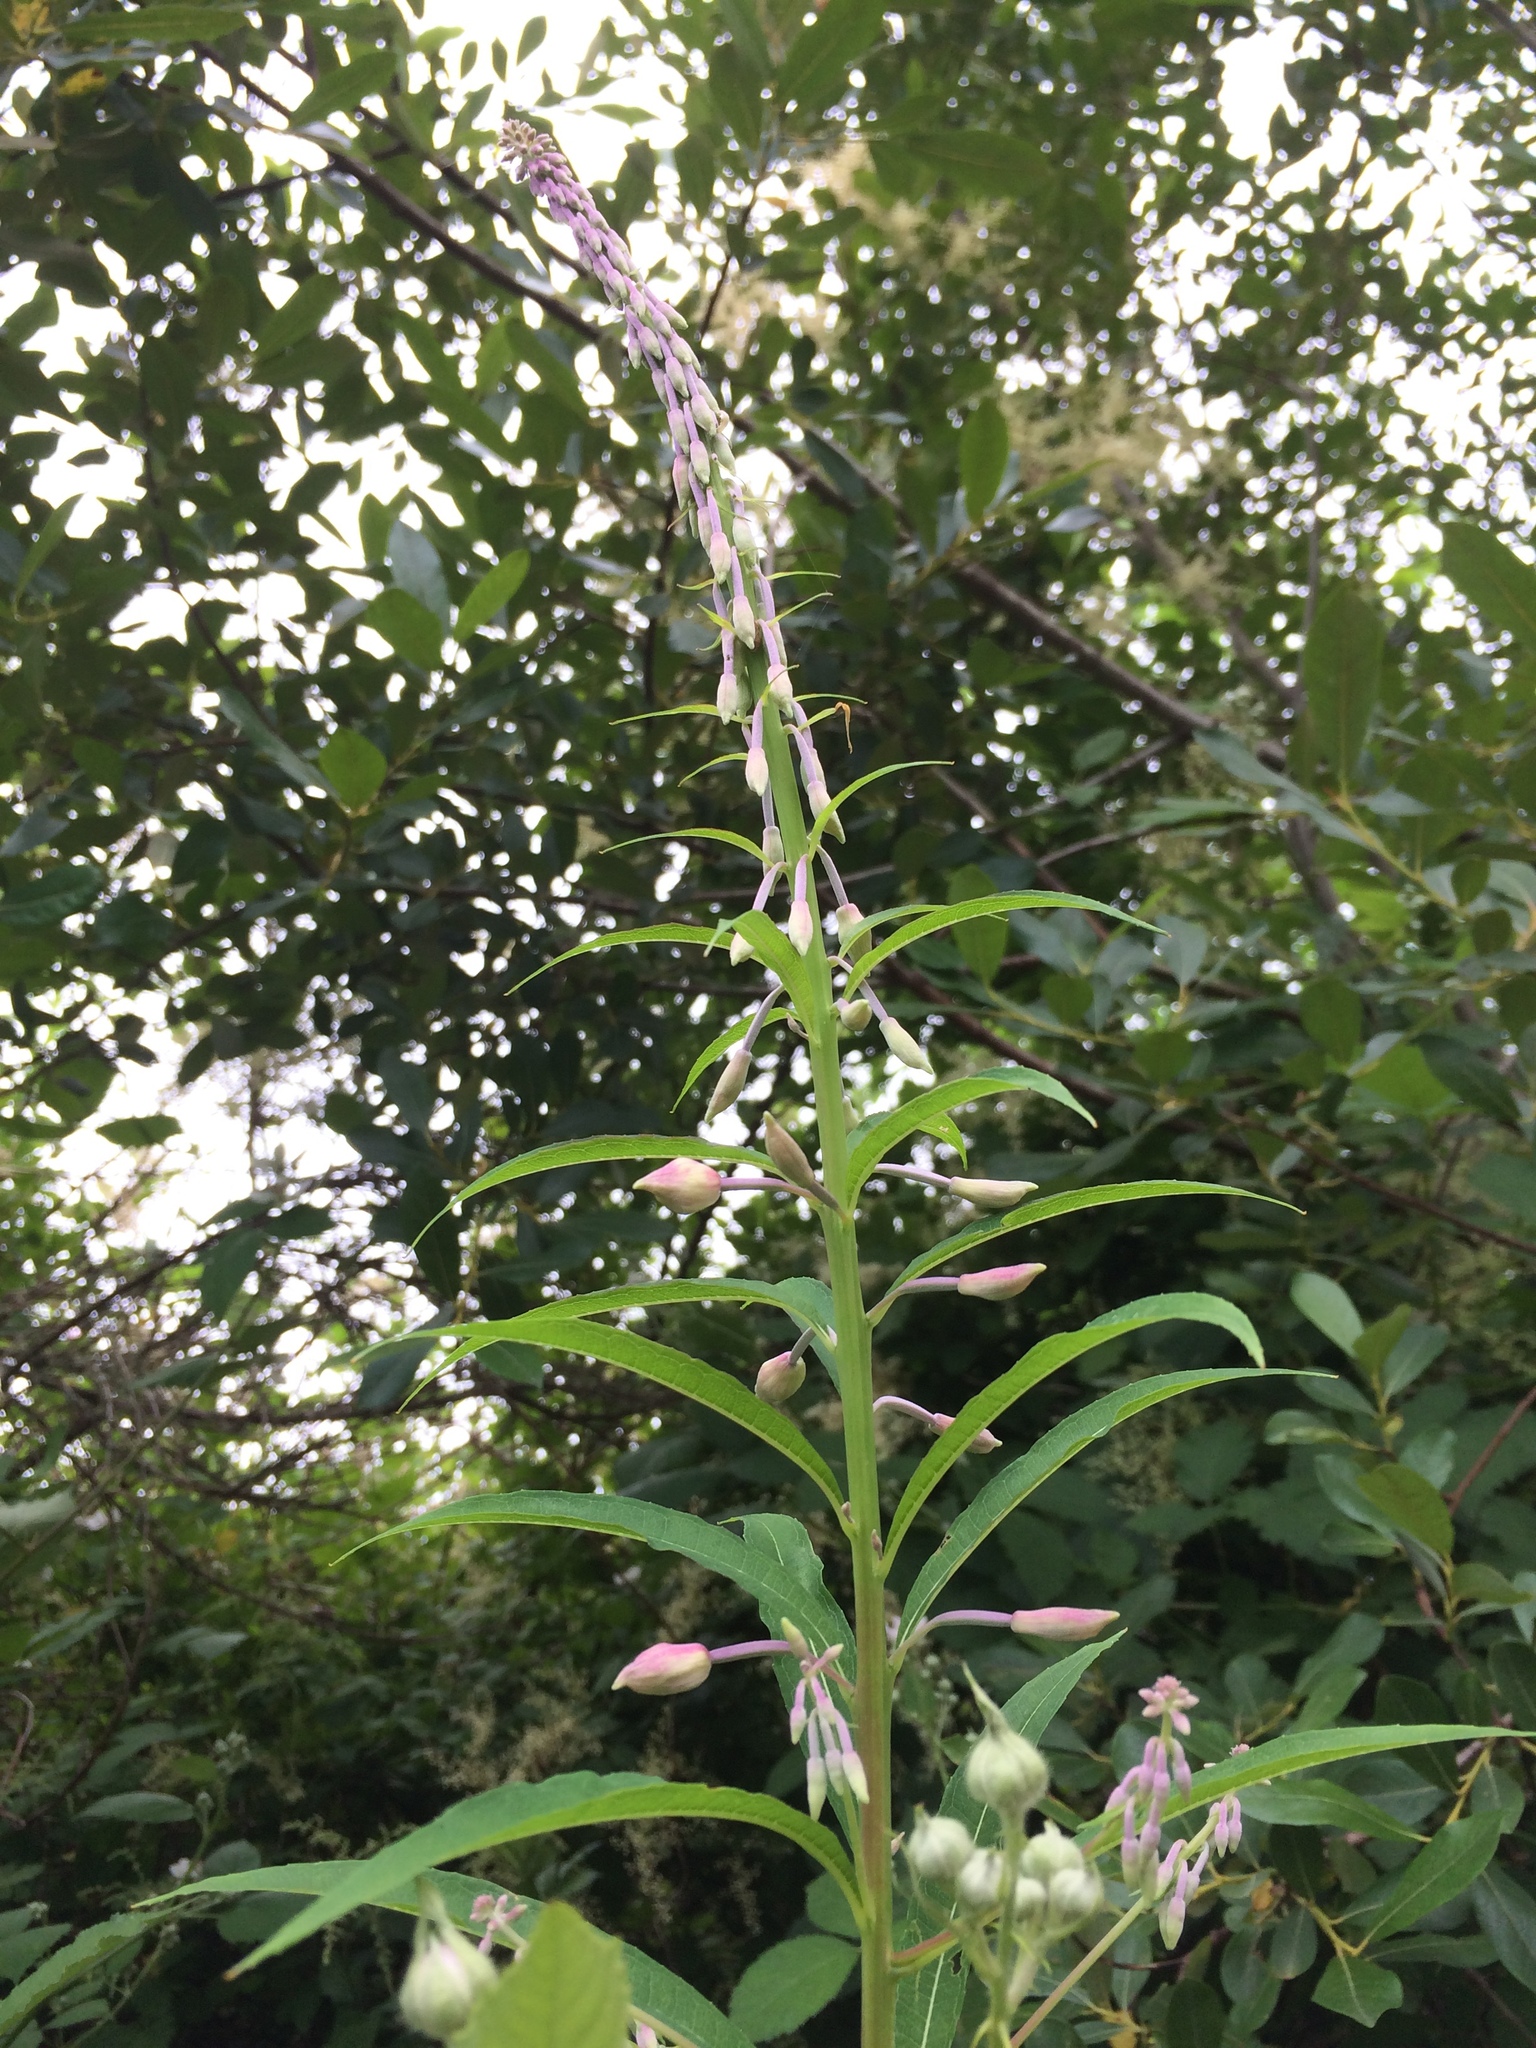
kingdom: Plantae
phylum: Tracheophyta
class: Magnoliopsida
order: Myrtales
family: Onagraceae
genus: Chamaenerion
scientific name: Chamaenerion angustifolium
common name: Fireweed
